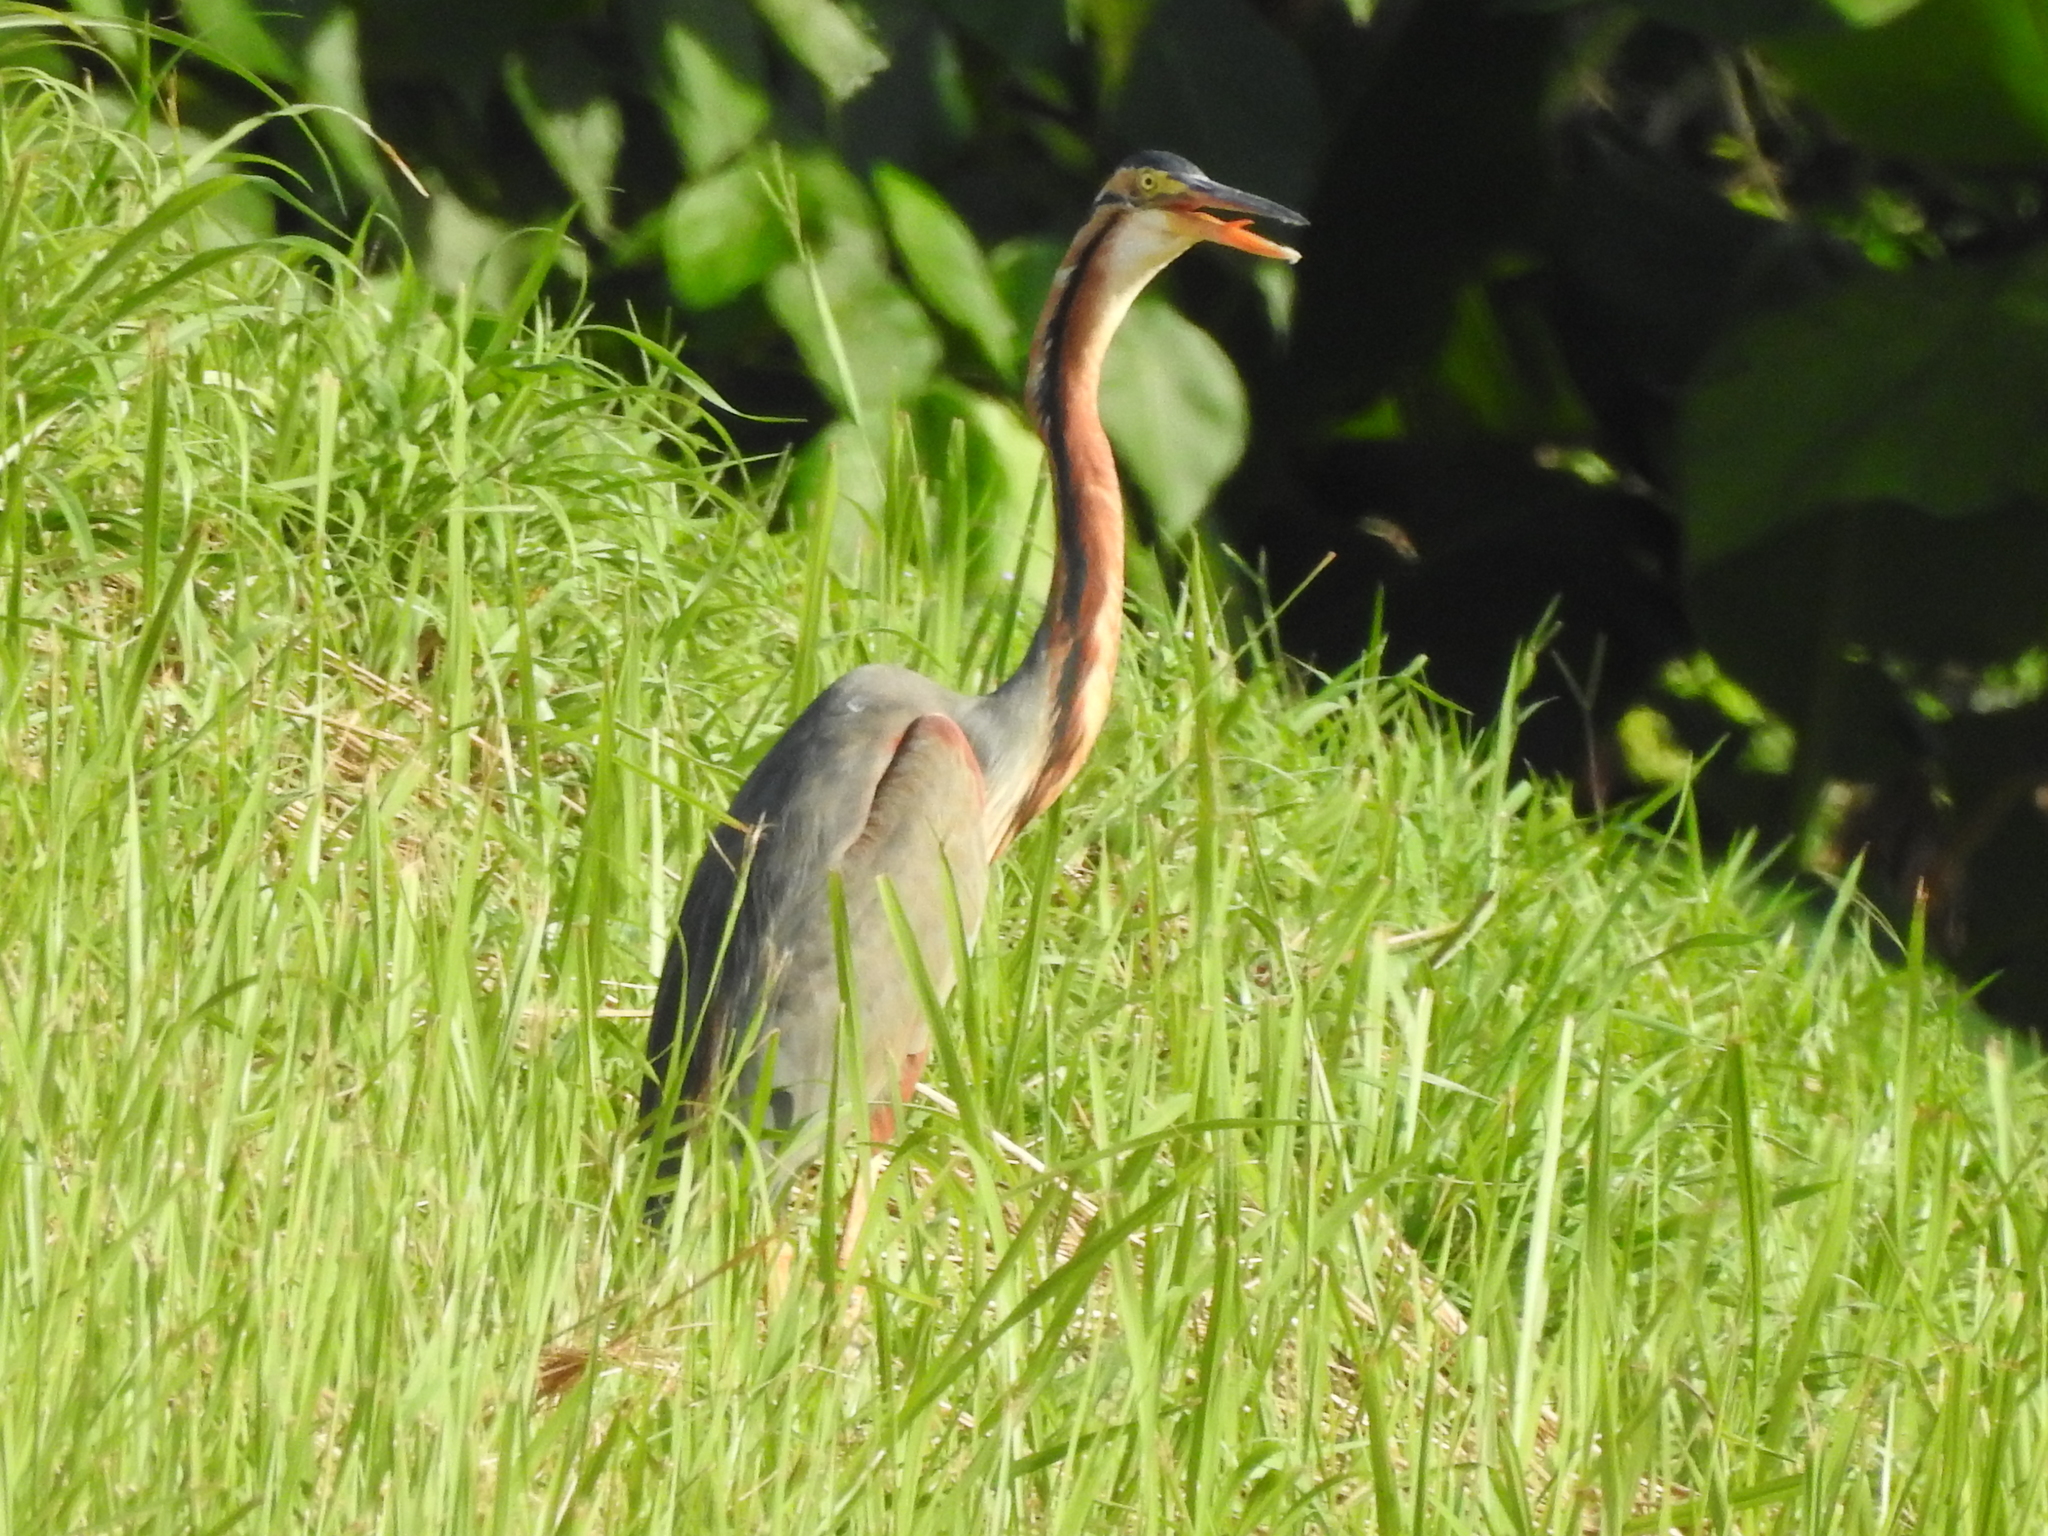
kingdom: Animalia
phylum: Chordata
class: Aves
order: Pelecaniformes
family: Ardeidae
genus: Ardea
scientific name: Ardea purpurea
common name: Purple heron
